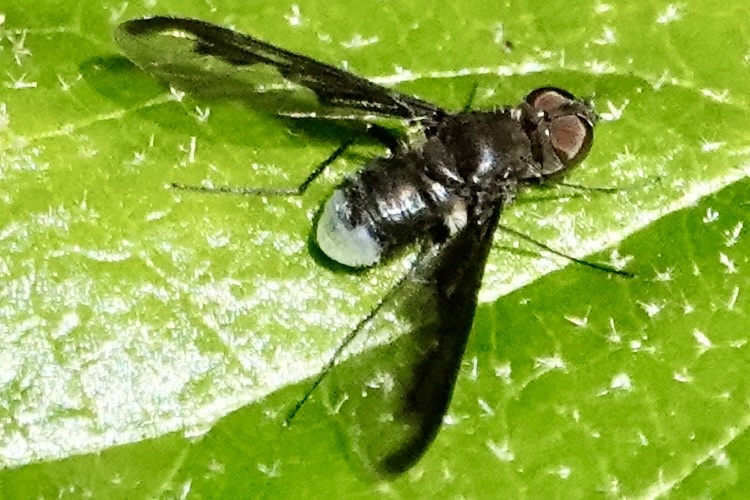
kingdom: Animalia
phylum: Arthropoda
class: Insecta
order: Diptera
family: Bombyliidae
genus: Anthrax
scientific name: Anthrax argyropygus
